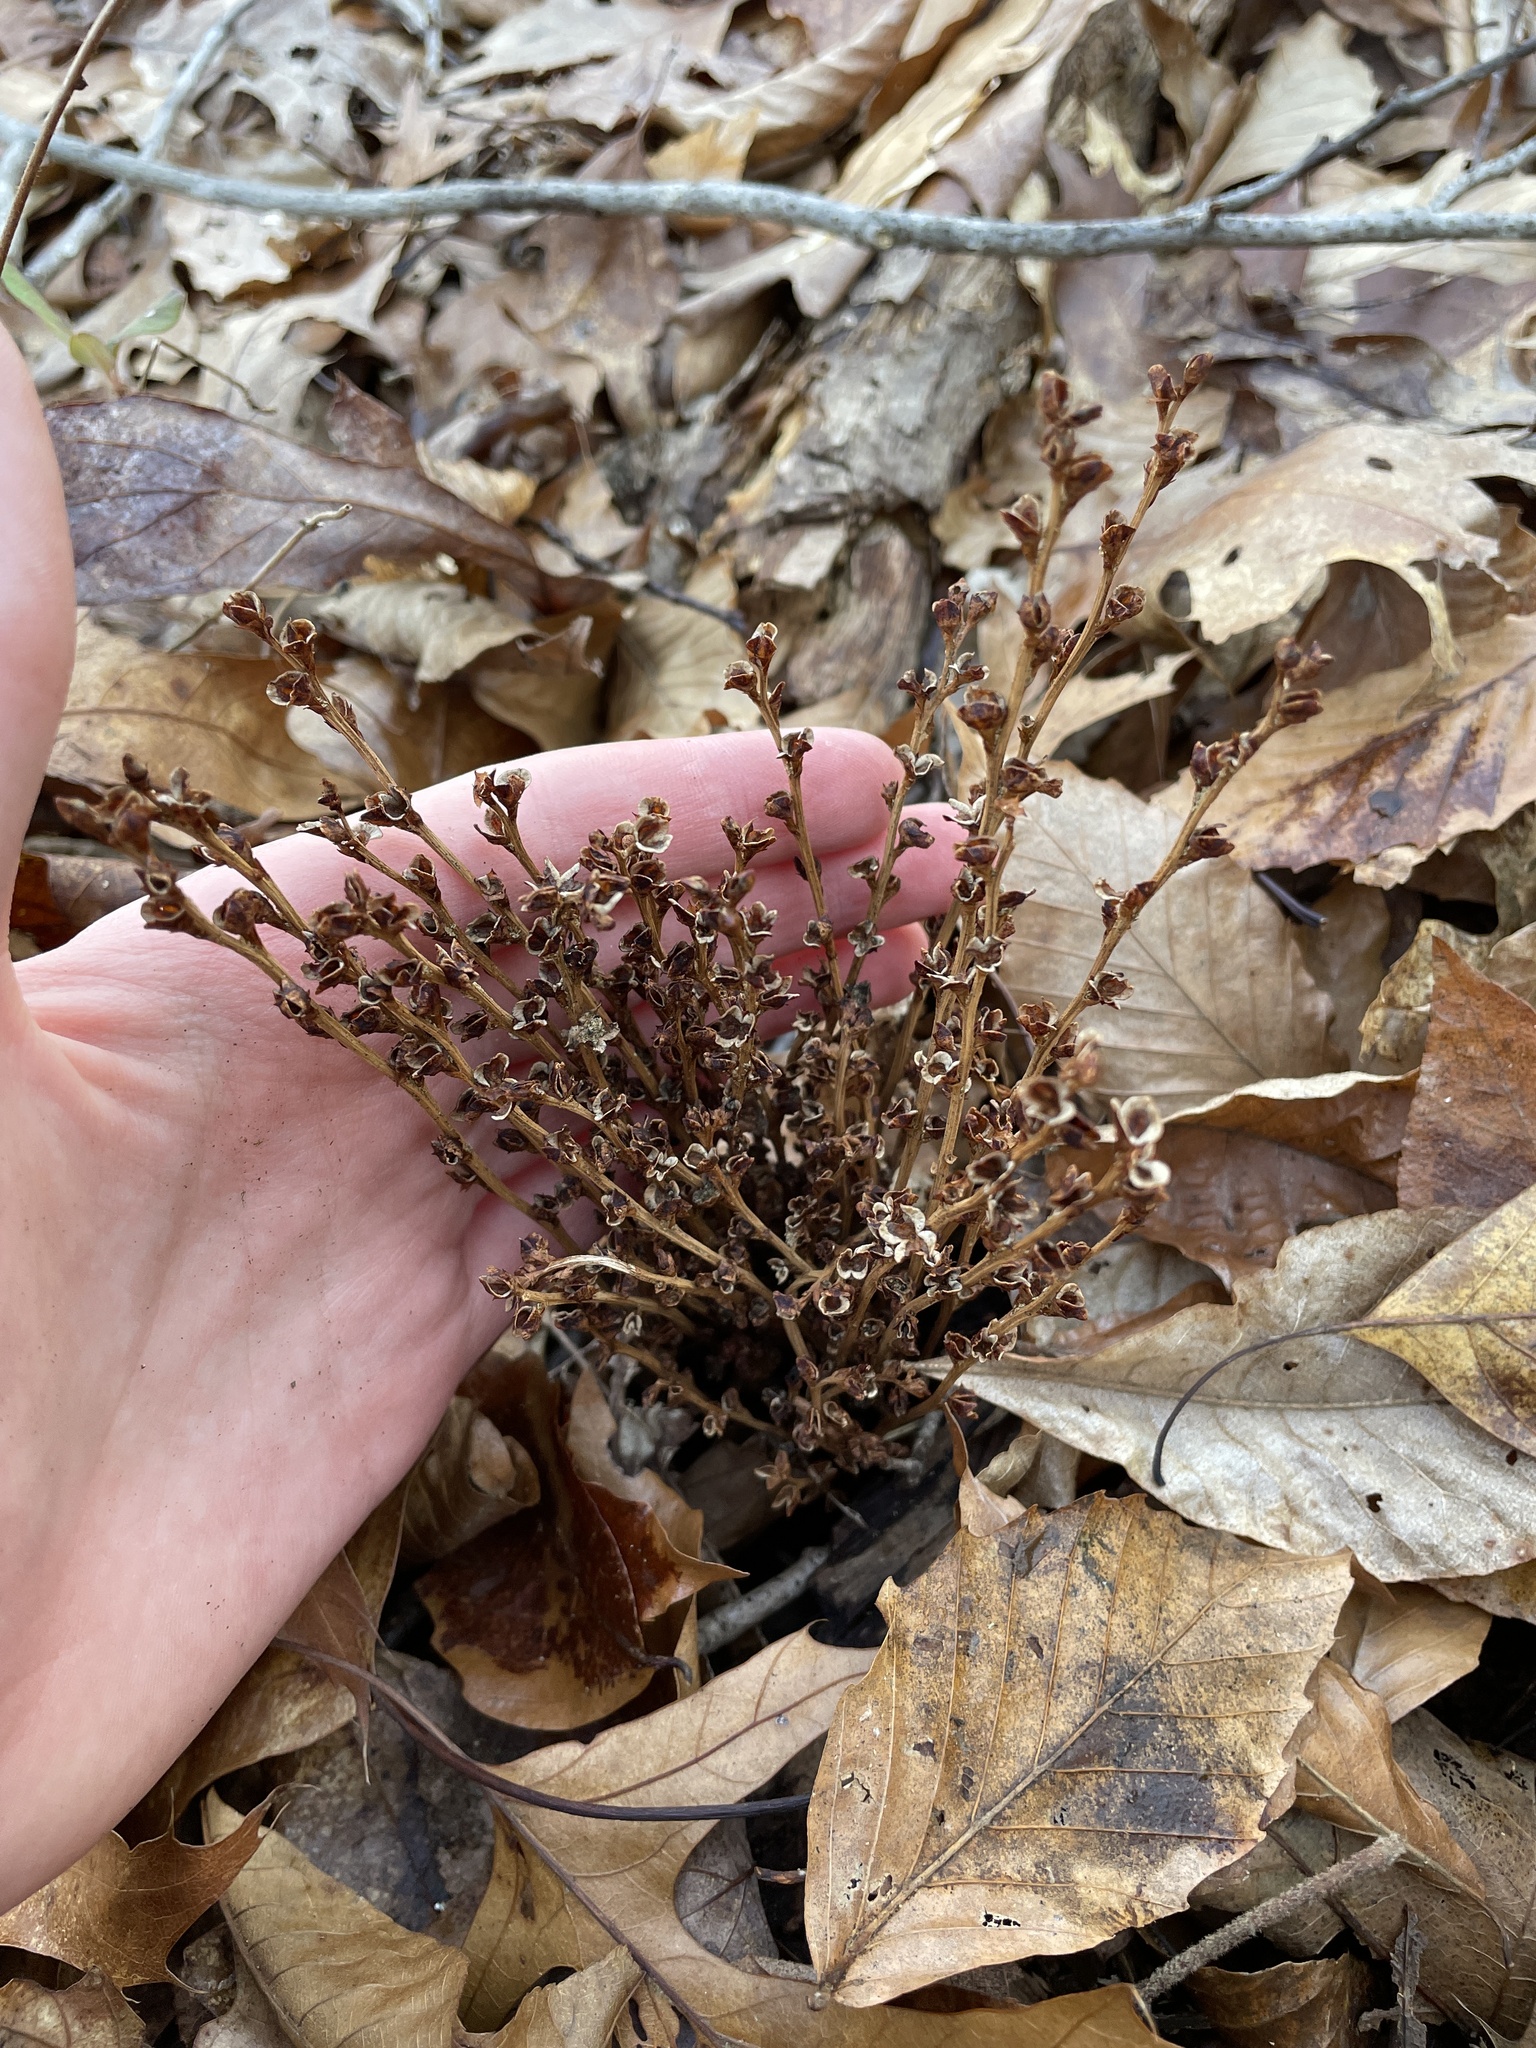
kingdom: Plantae
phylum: Tracheophyta
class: Magnoliopsida
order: Lamiales
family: Orobanchaceae
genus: Epifagus
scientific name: Epifagus virginiana
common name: Beechdrops
